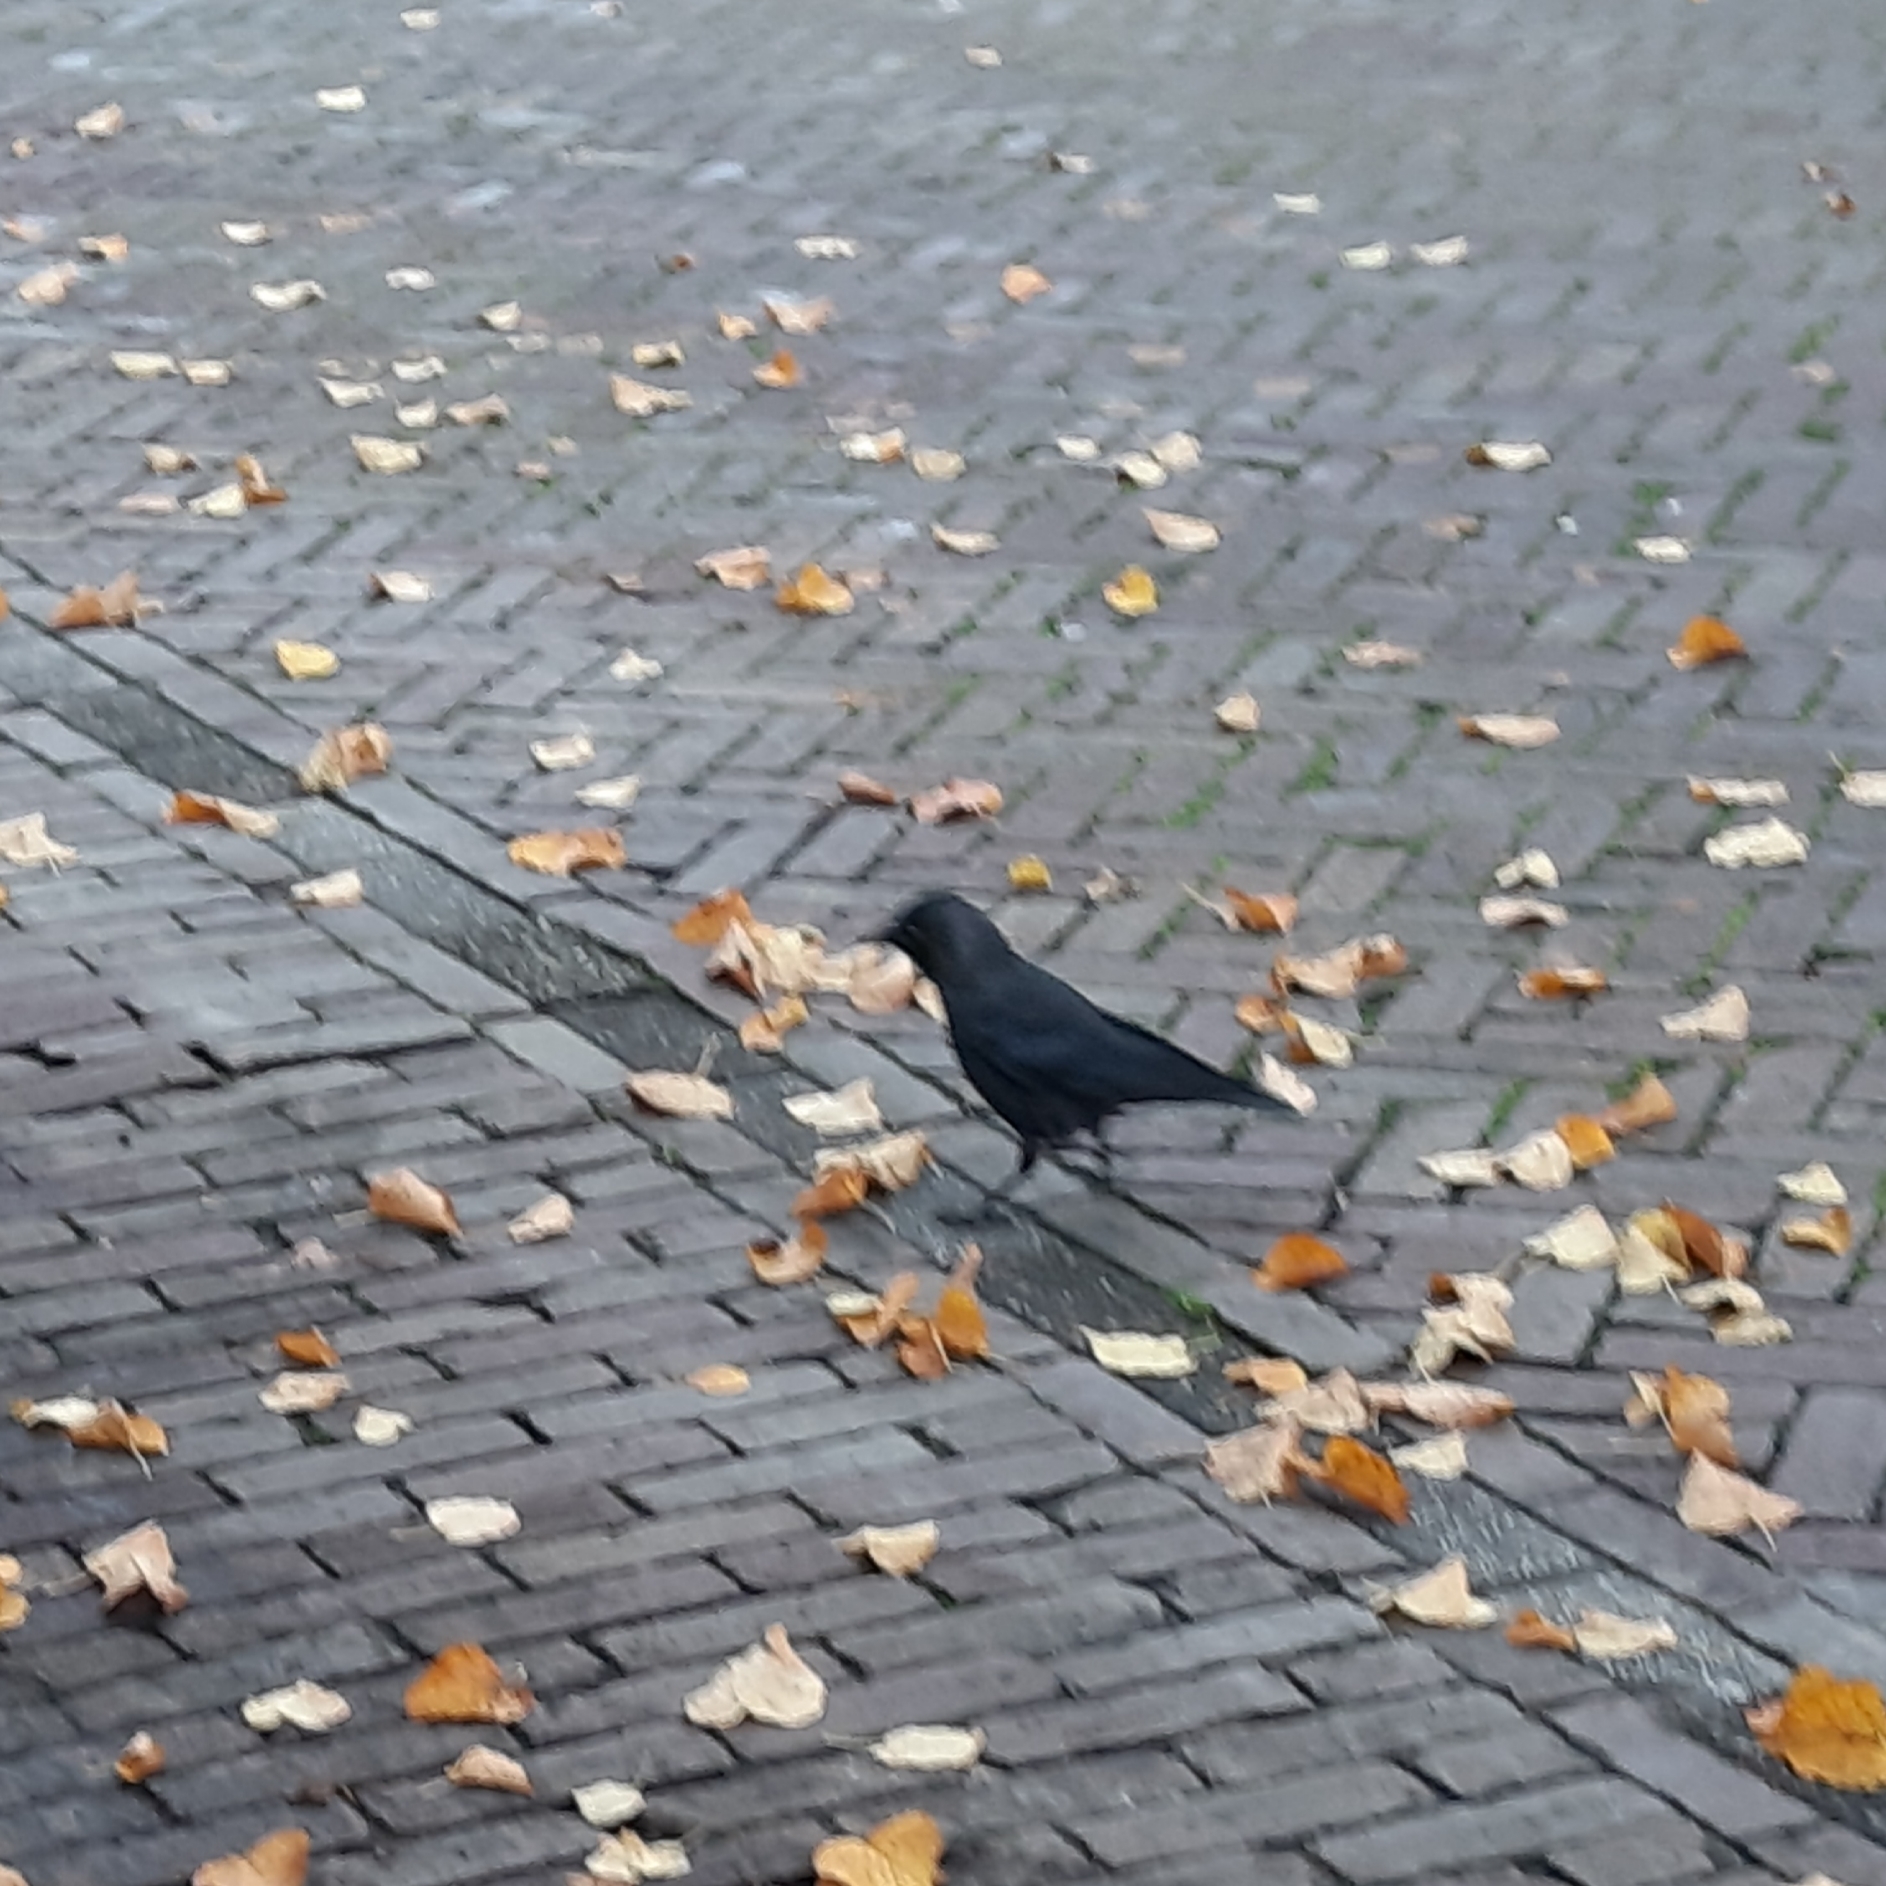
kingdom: Animalia
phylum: Chordata
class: Aves
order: Passeriformes
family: Corvidae
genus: Coloeus
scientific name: Coloeus monedula
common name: Western jackdaw
